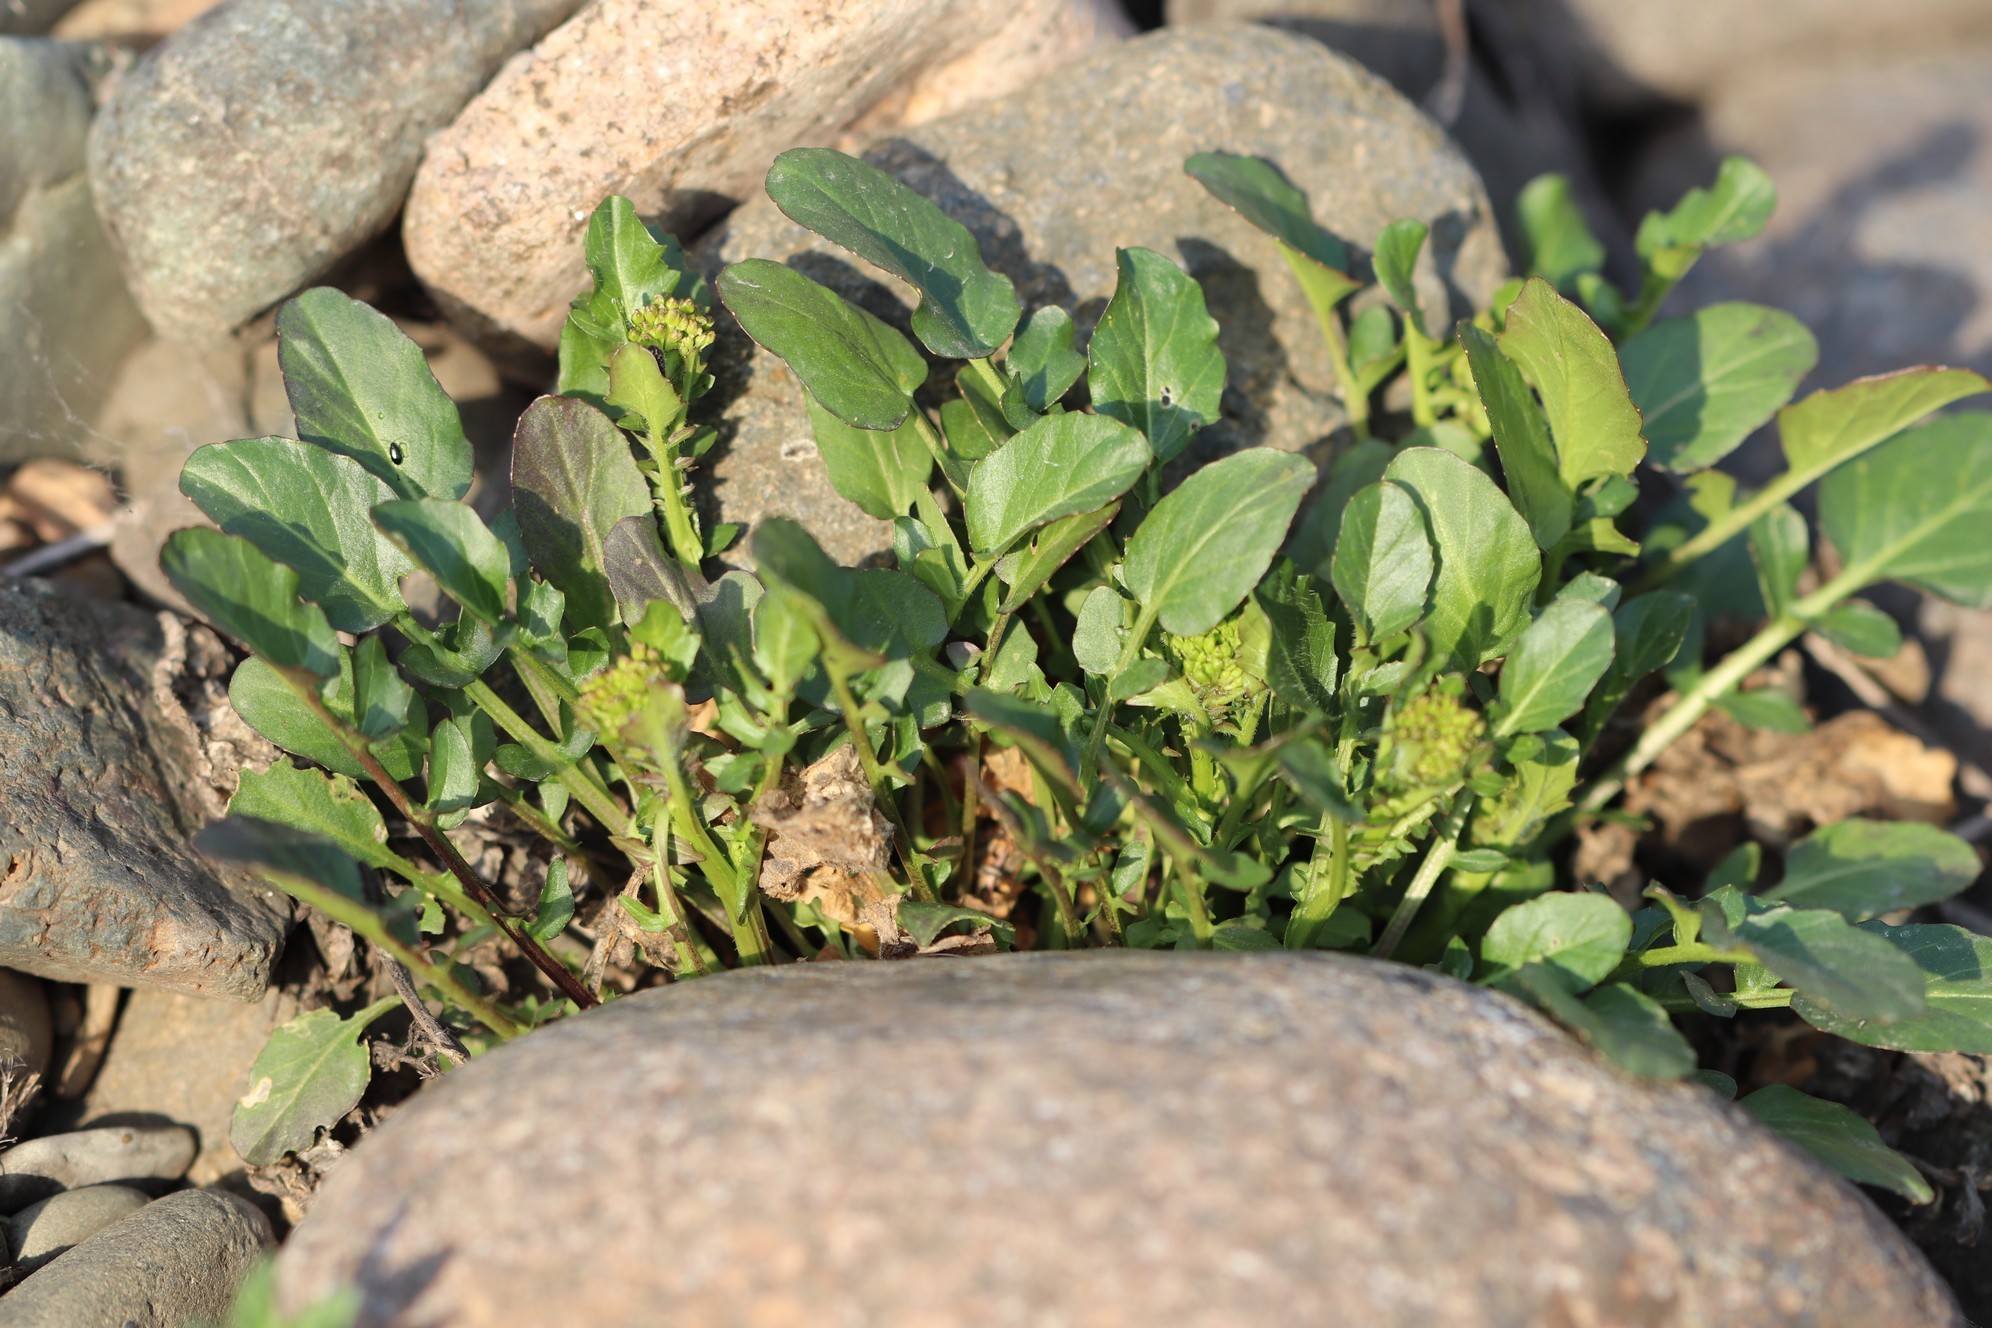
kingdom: Plantae
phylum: Tracheophyta
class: Magnoliopsida
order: Brassicales
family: Brassicaceae
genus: Barbarea
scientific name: Barbarea vulgaris
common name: Cressy-greens
